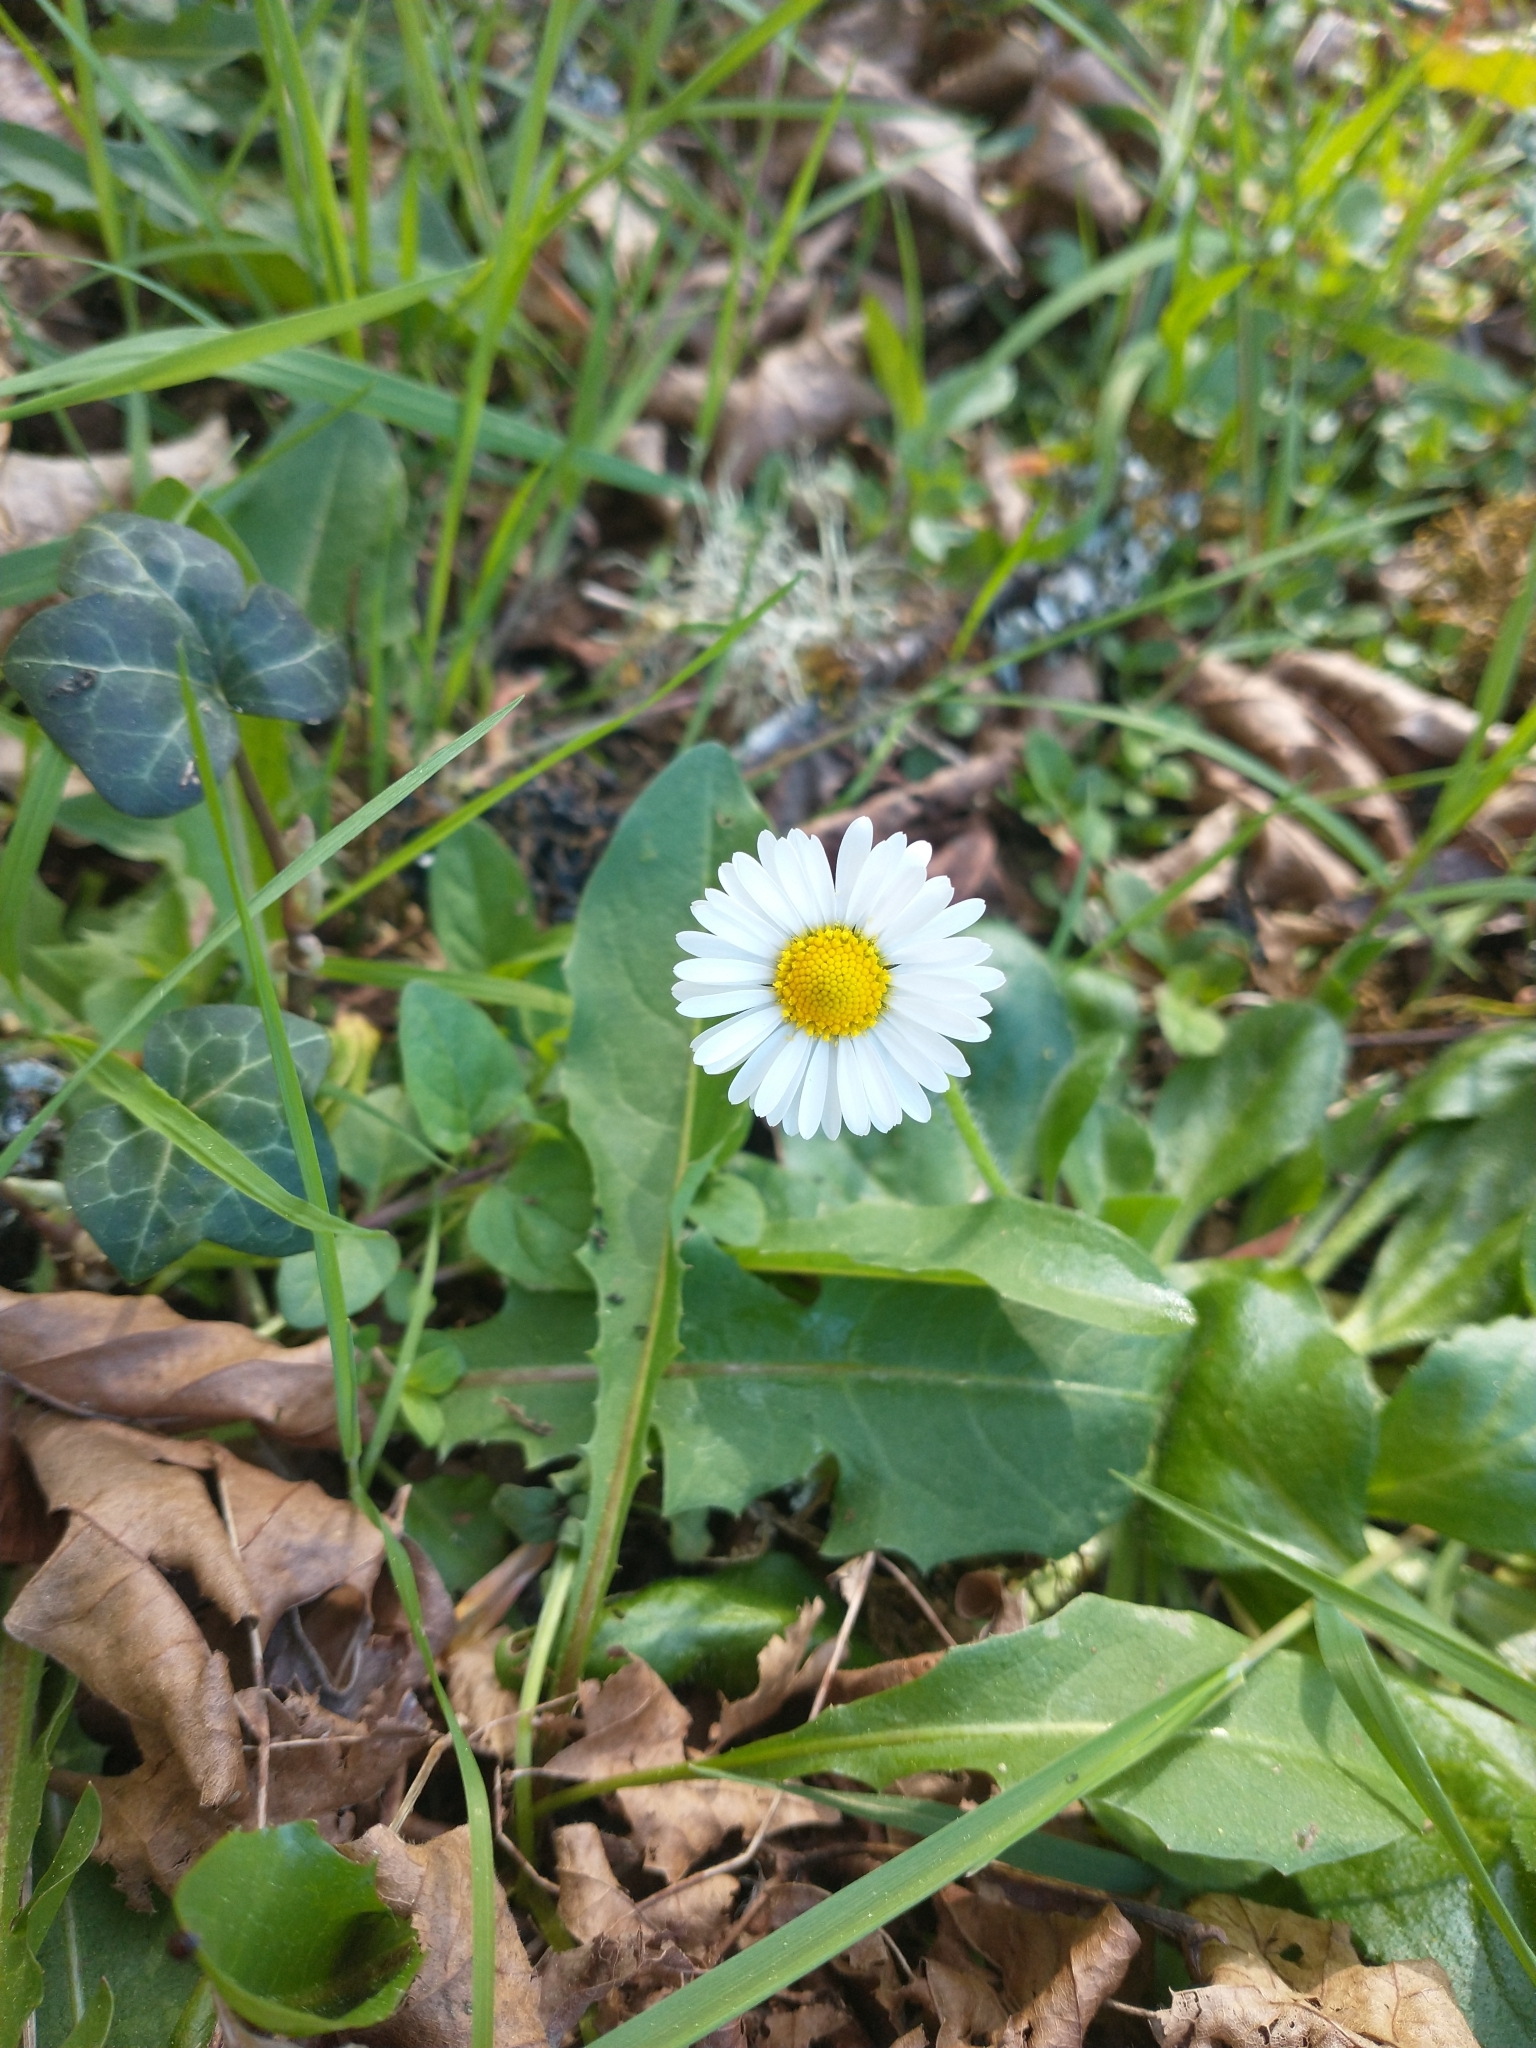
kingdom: Plantae
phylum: Tracheophyta
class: Magnoliopsida
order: Asterales
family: Asteraceae
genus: Bellis
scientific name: Bellis perennis
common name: Lawndaisy
